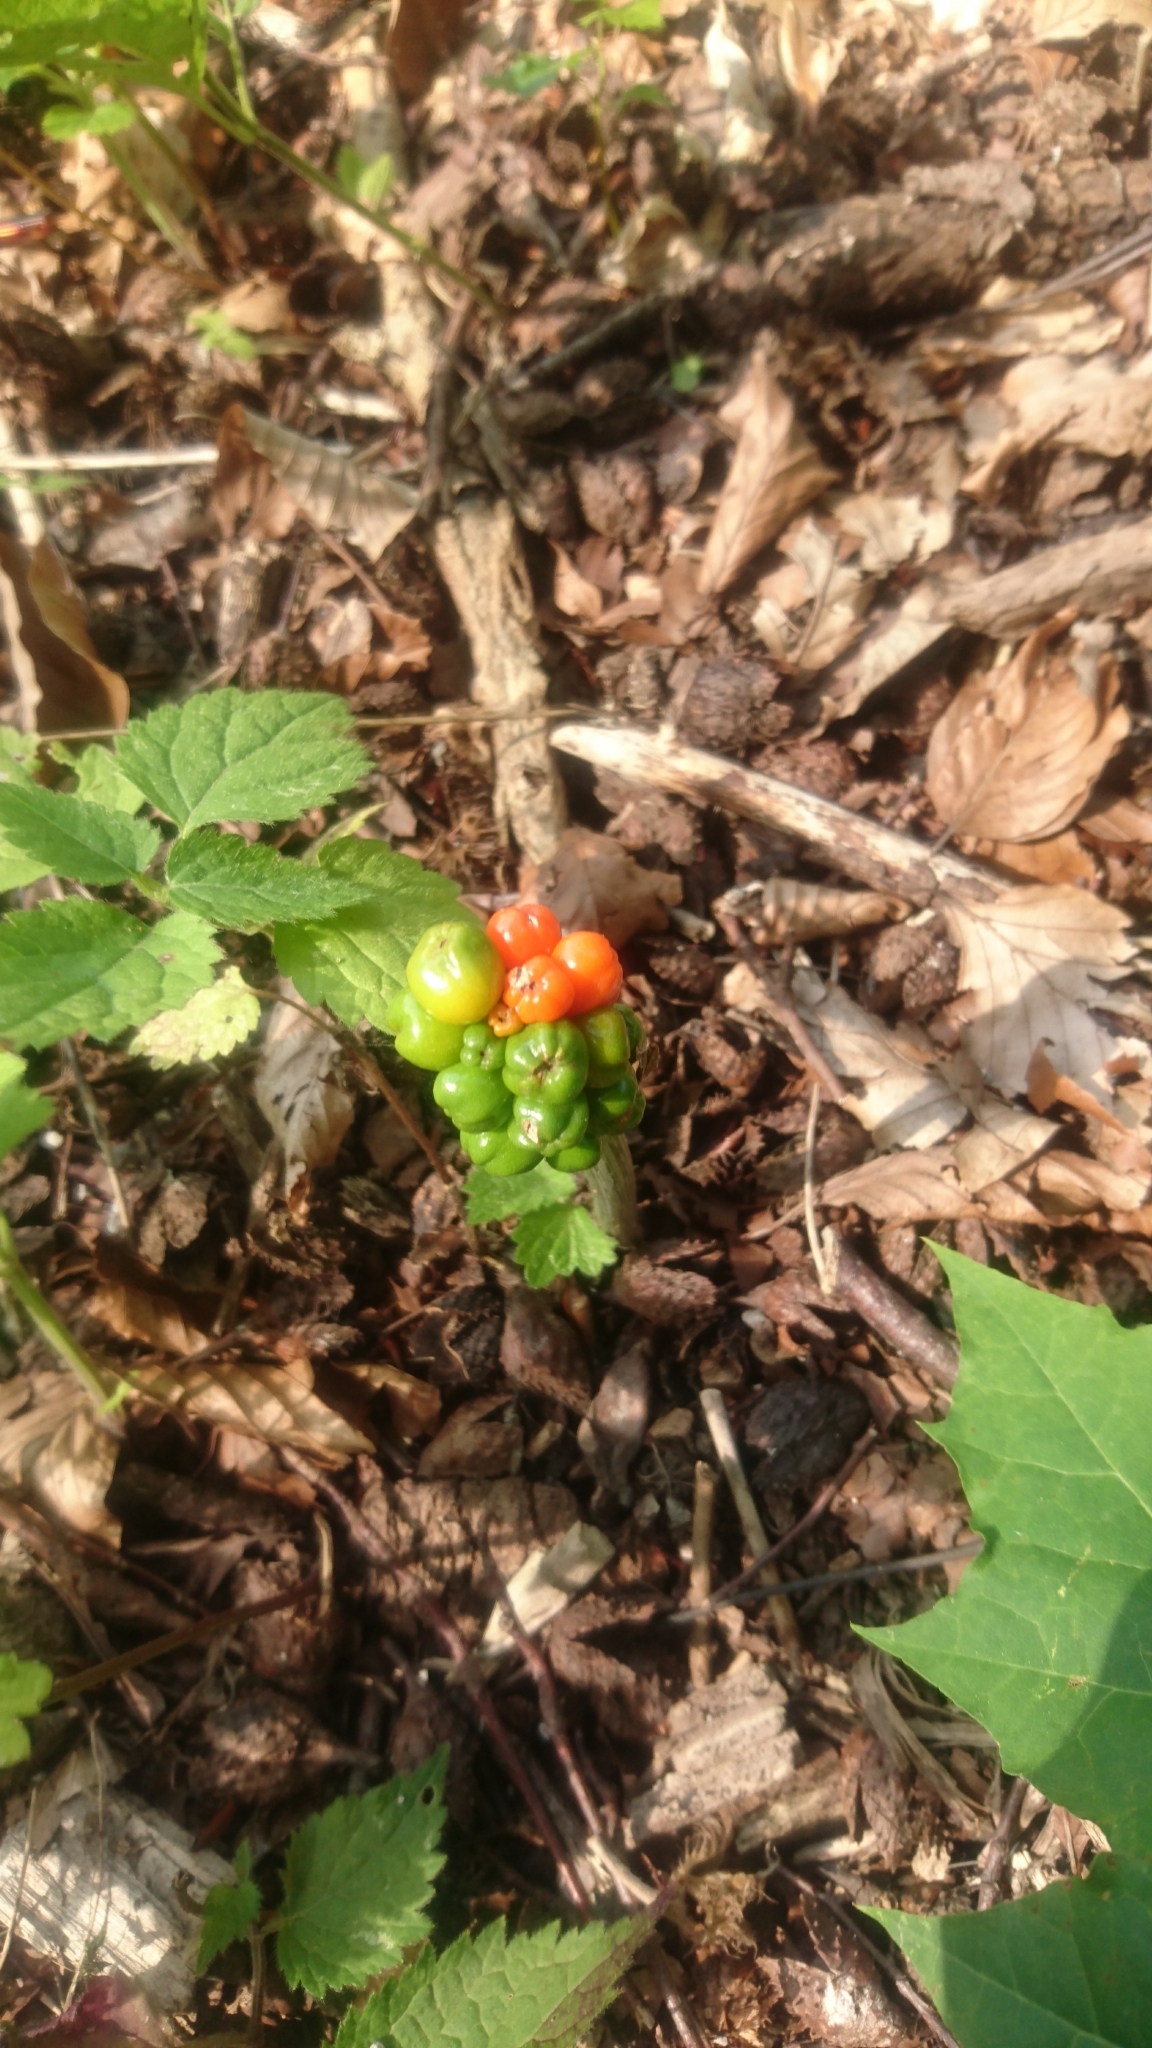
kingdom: Plantae
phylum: Tracheophyta
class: Liliopsida
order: Alismatales
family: Araceae
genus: Arum
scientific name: Arum
